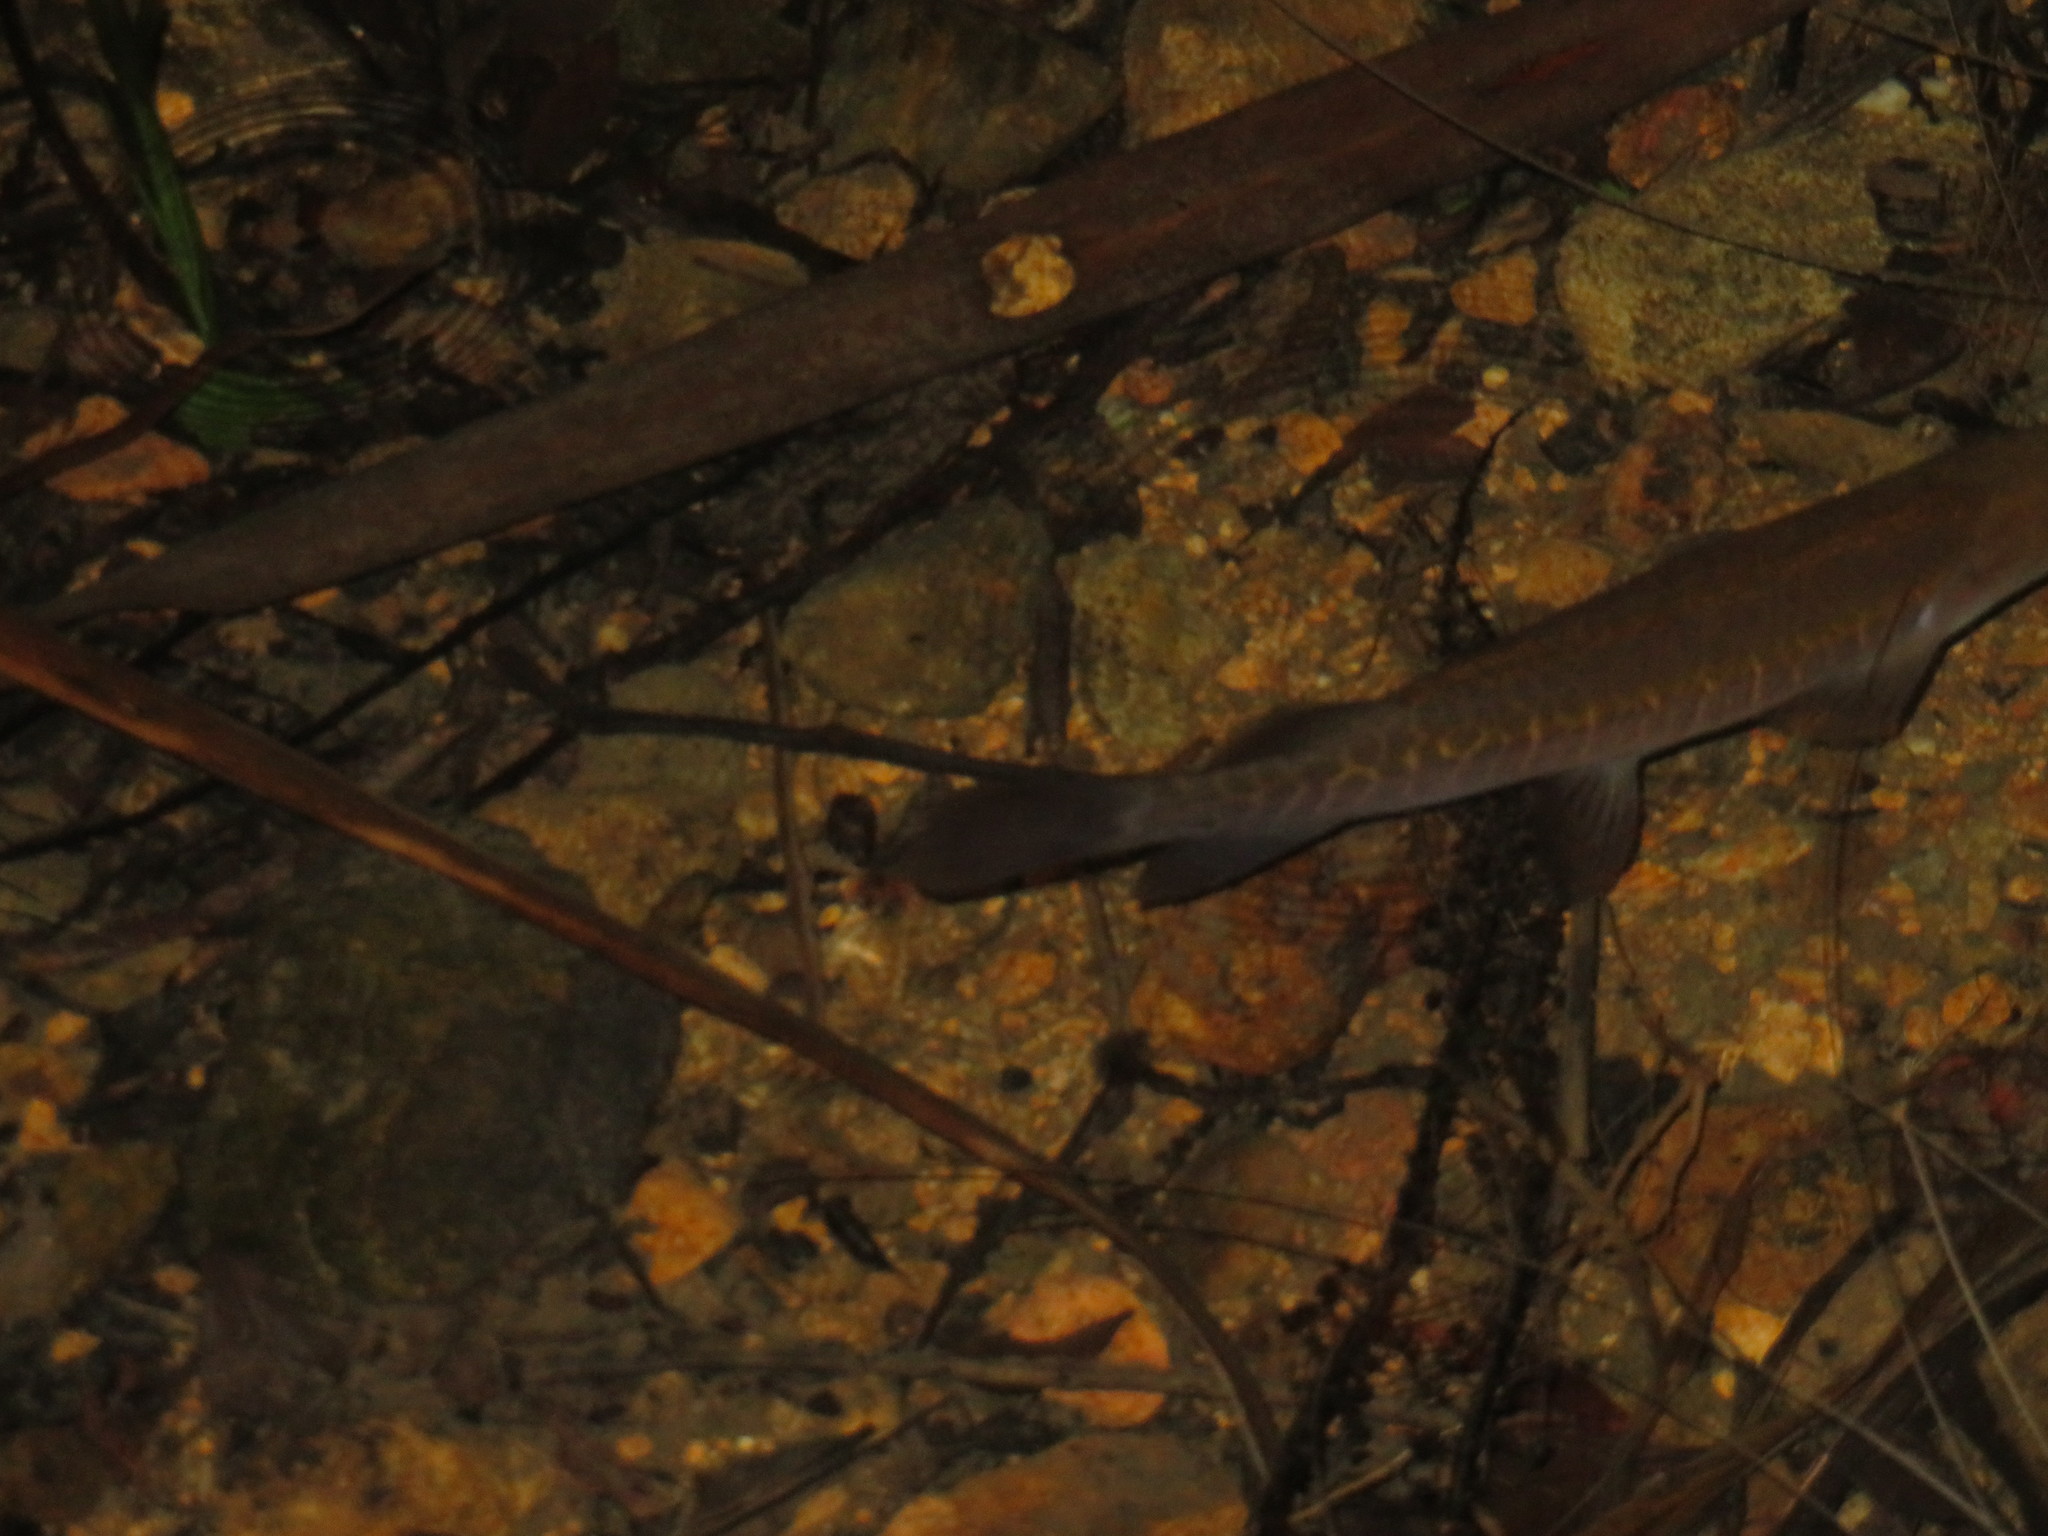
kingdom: Animalia
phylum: Chordata
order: Osmeriformes
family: Galaxiidae
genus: Galaxias
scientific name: Galaxias fasciatus
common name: Banded kokopu
